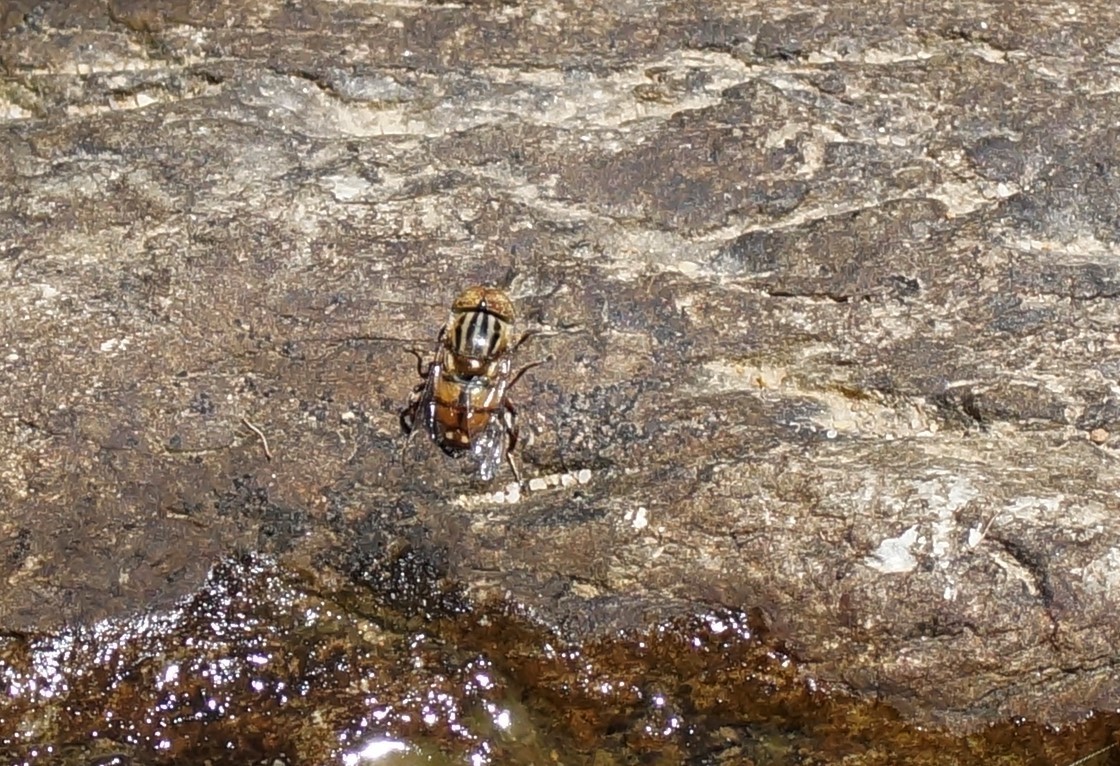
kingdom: Animalia
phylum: Arthropoda
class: Insecta
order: Diptera
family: Syrphidae
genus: Eristalinus
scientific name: Eristalinus punctulatus
